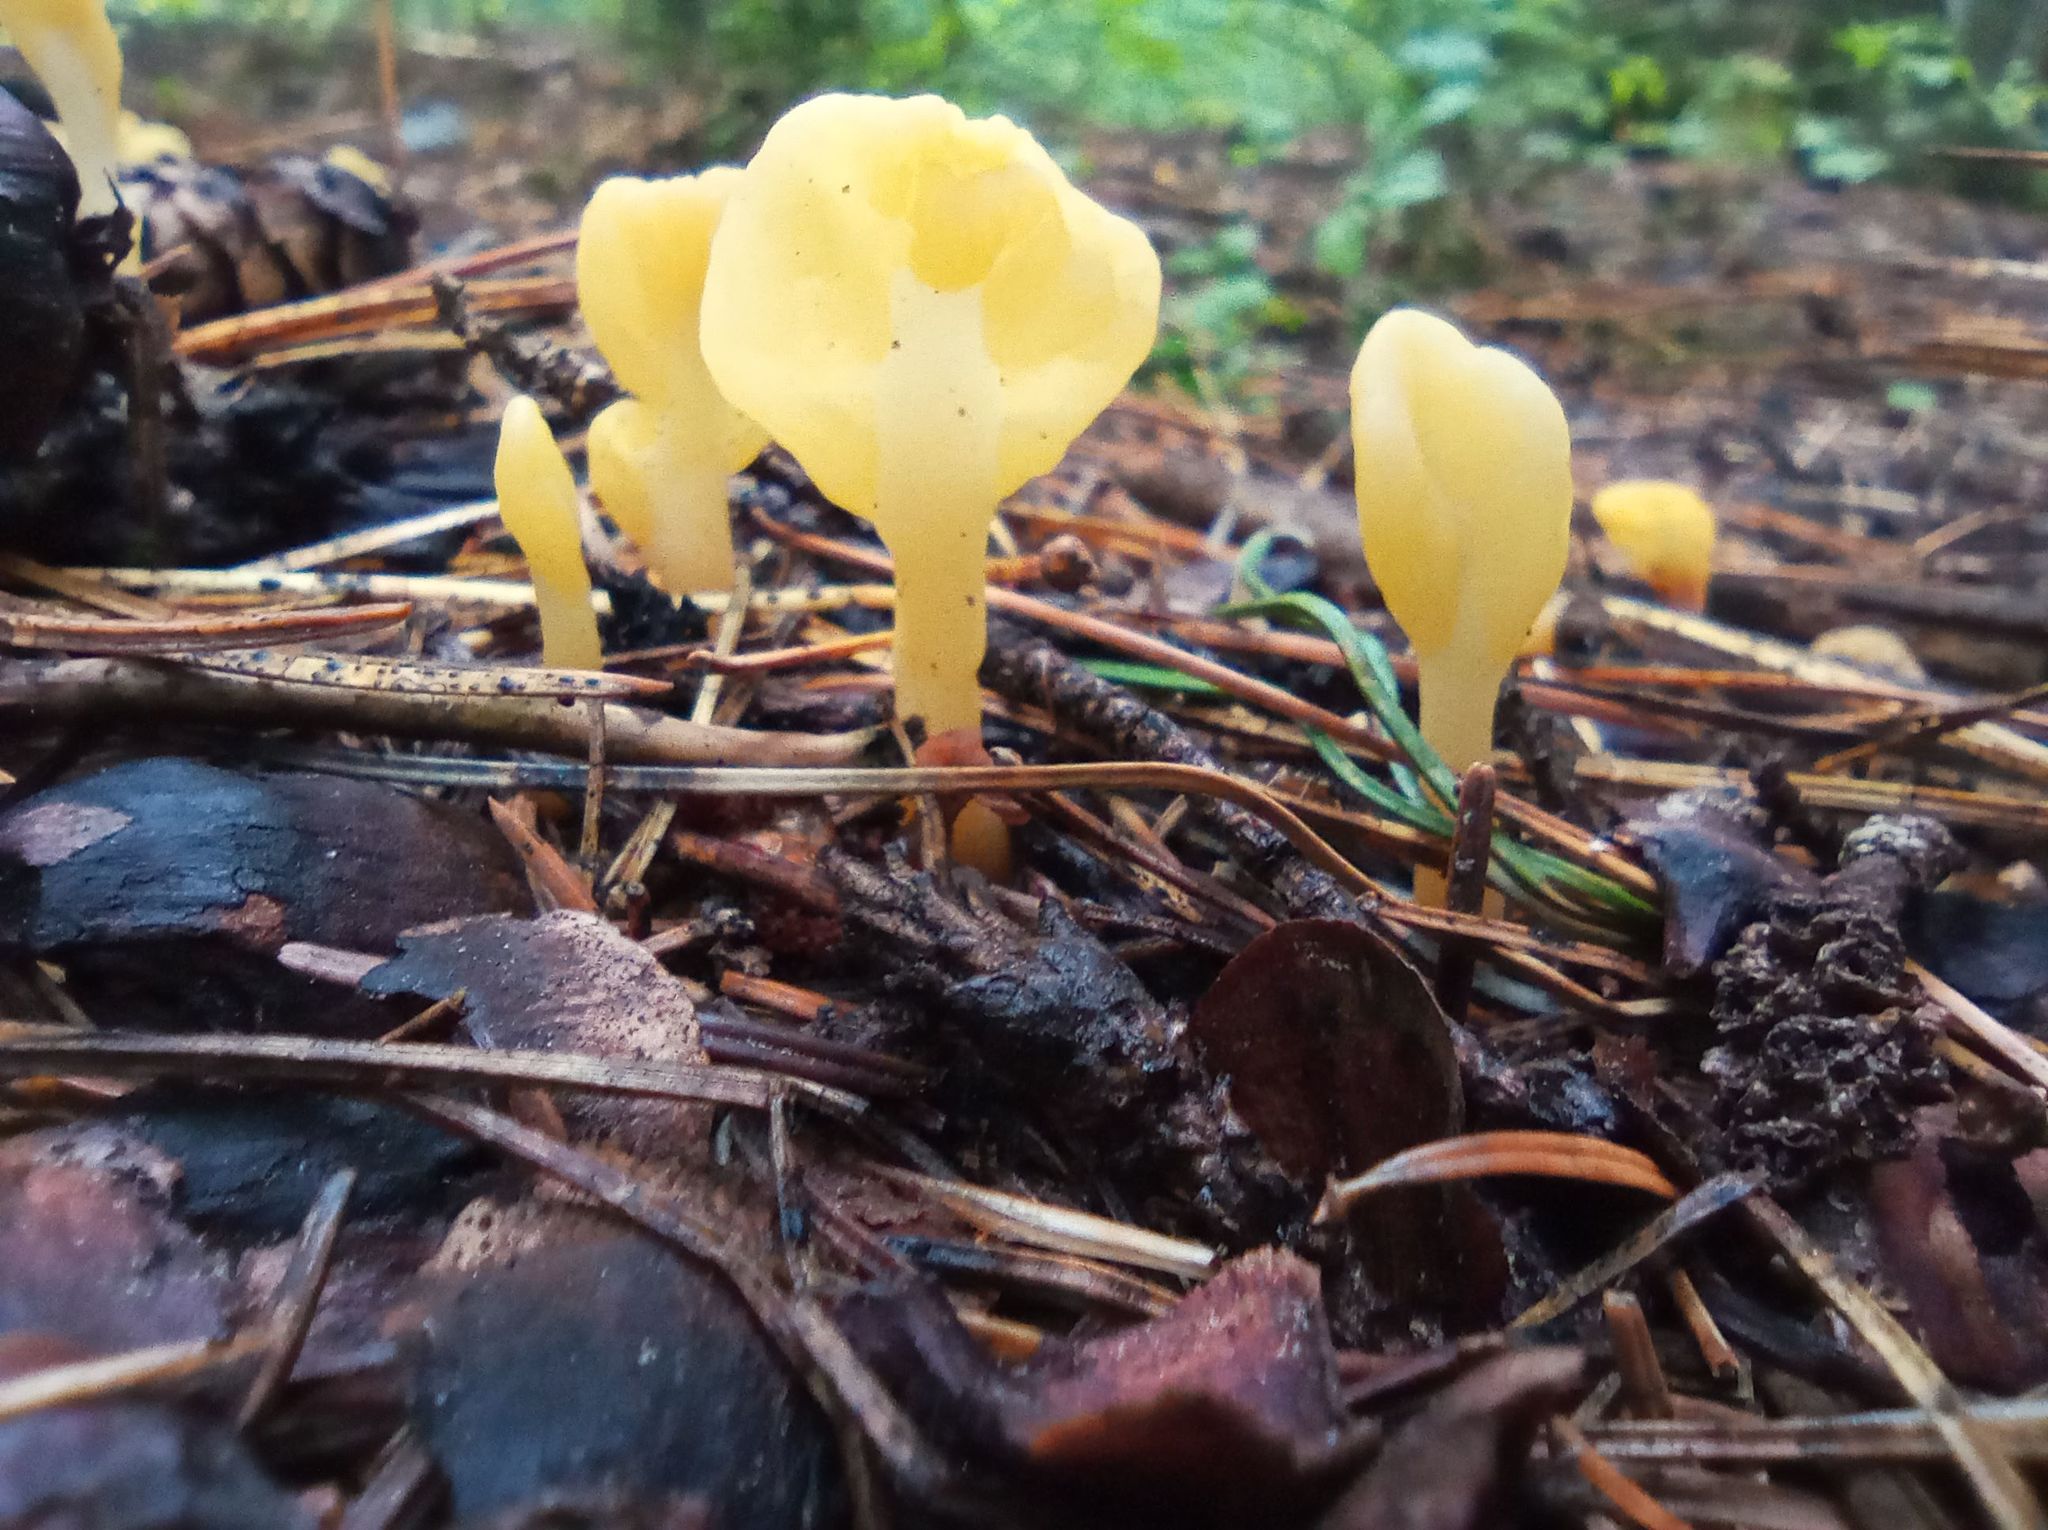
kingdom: Fungi
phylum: Ascomycota
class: Leotiomycetes
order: Rhytismatales
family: Cudoniaceae
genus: Spathularia
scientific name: Spathularia flavida
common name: Yellow fan
